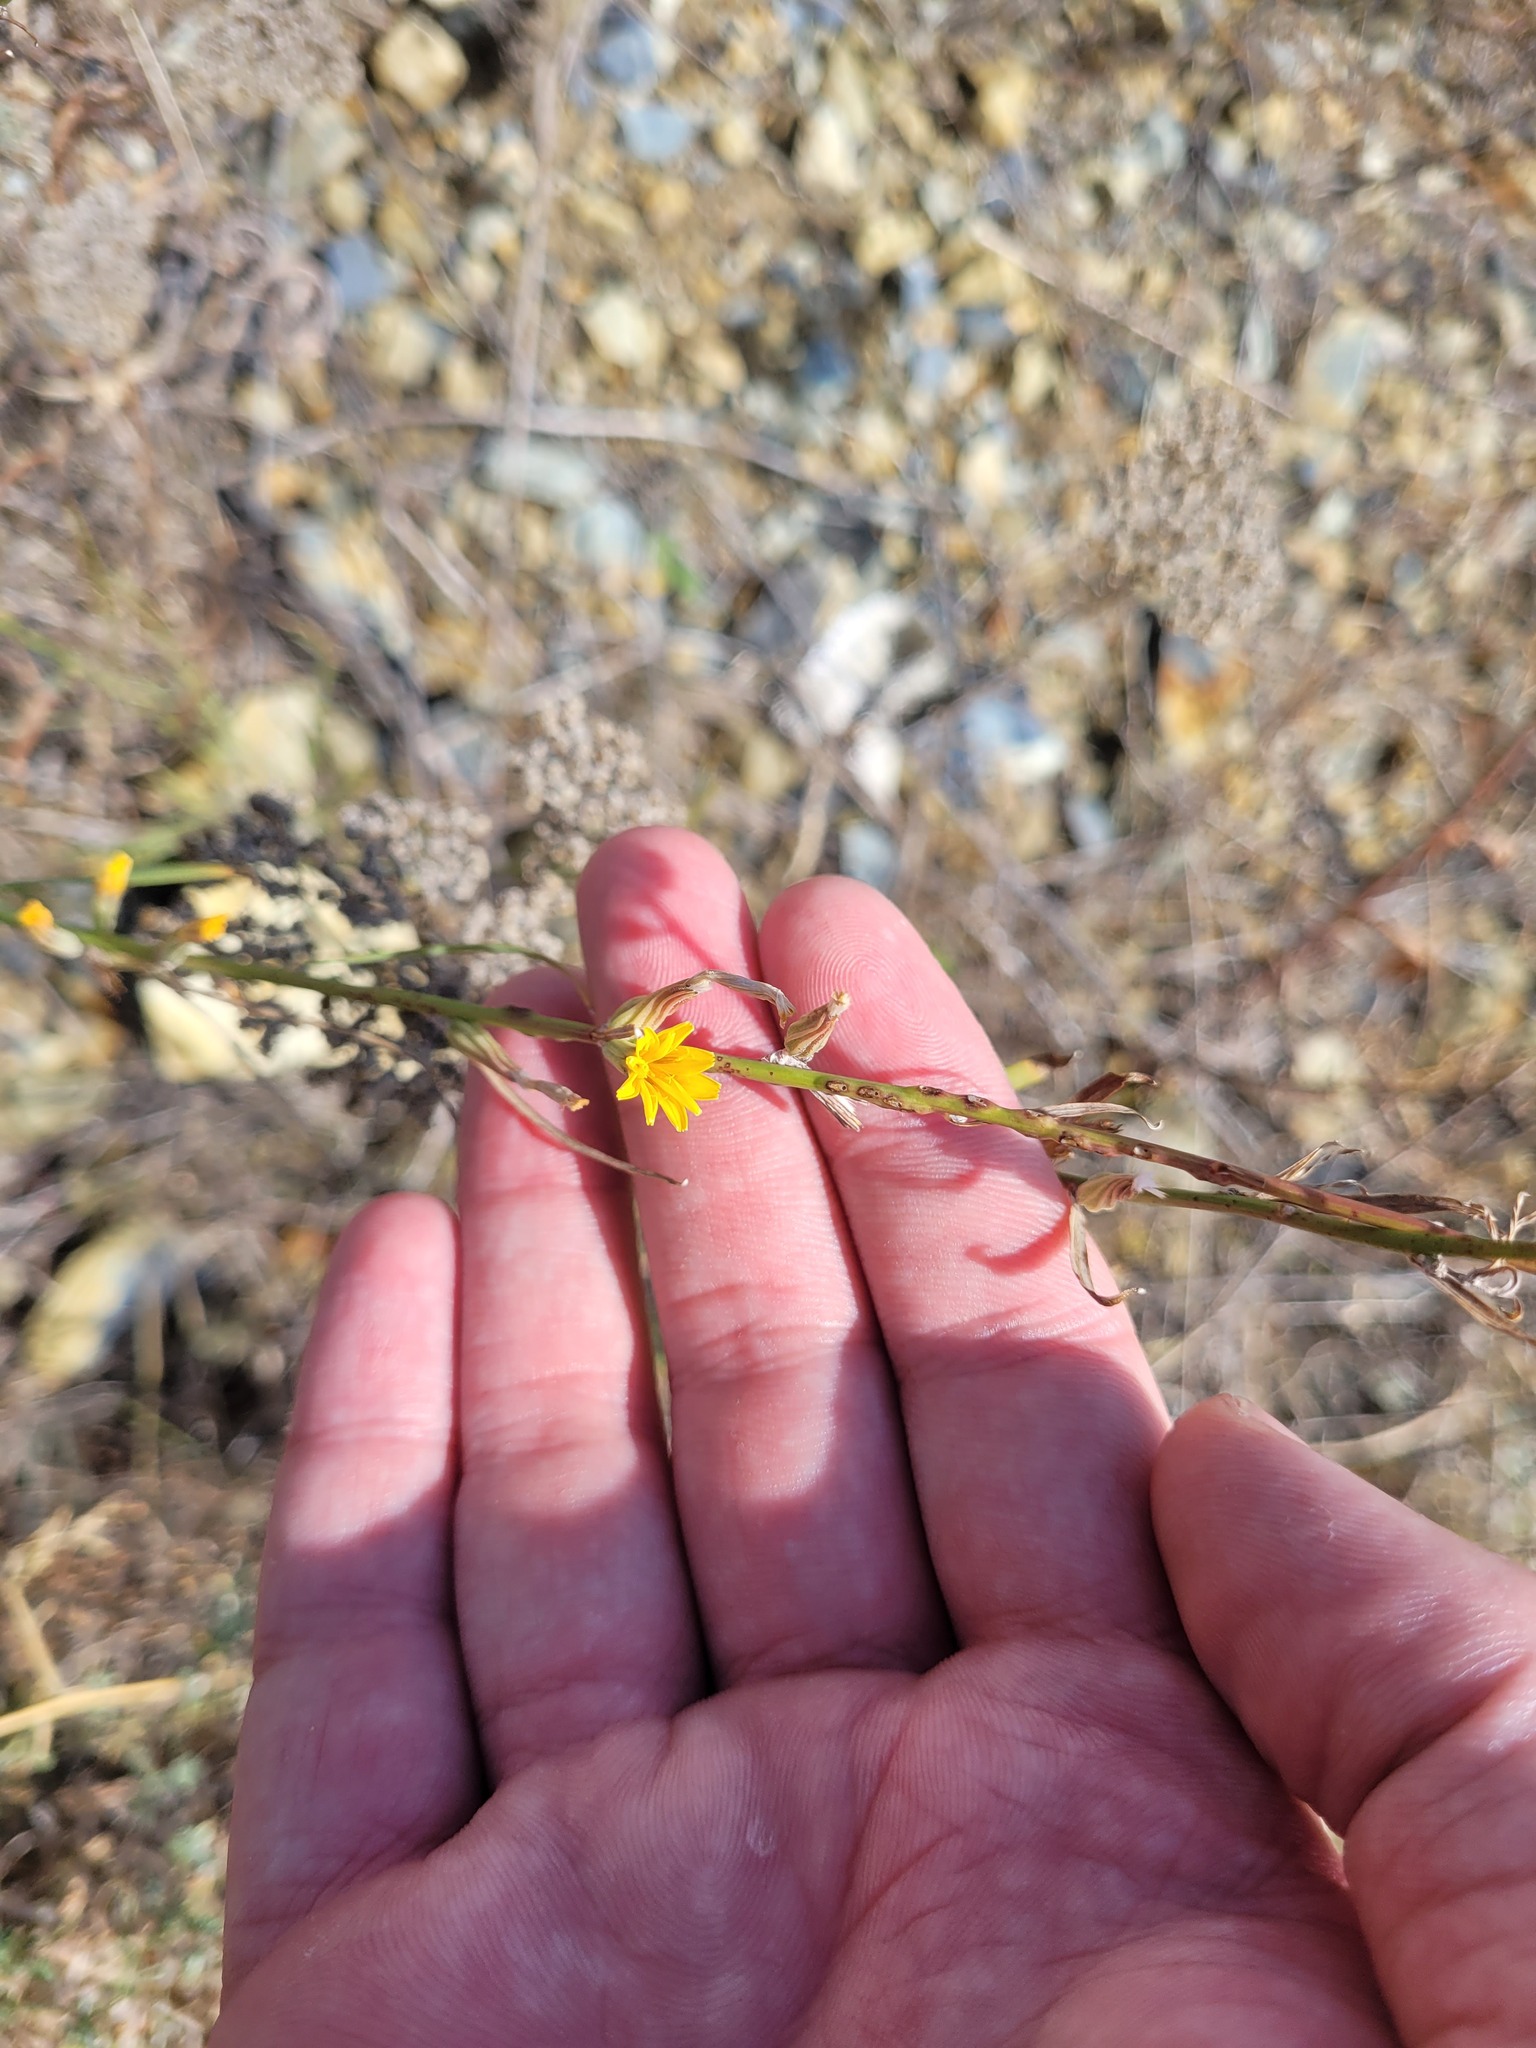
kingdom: Plantae
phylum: Tracheophyta
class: Magnoliopsida
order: Asterales
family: Asteraceae
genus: Chondrilla
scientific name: Chondrilla juncea
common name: Skeleton weed
